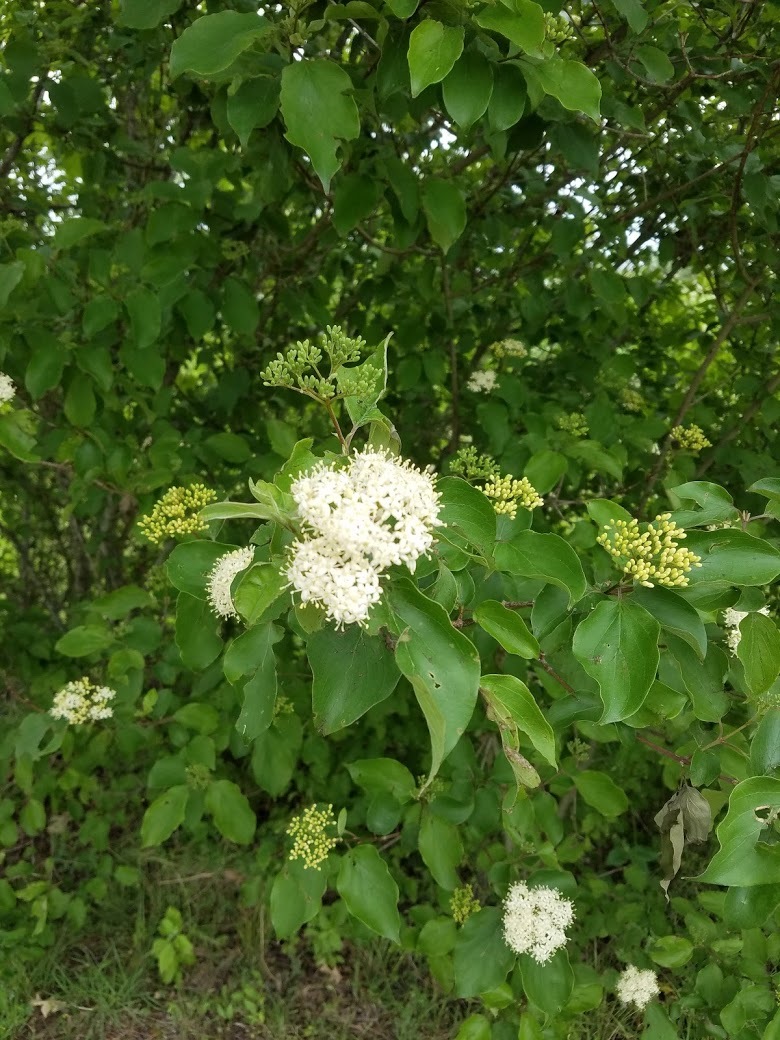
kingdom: Plantae
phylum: Tracheophyta
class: Magnoliopsida
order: Cornales
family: Cornaceae
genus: Cornus
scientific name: Cornus drummondii
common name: Rough-leaf dogwood
